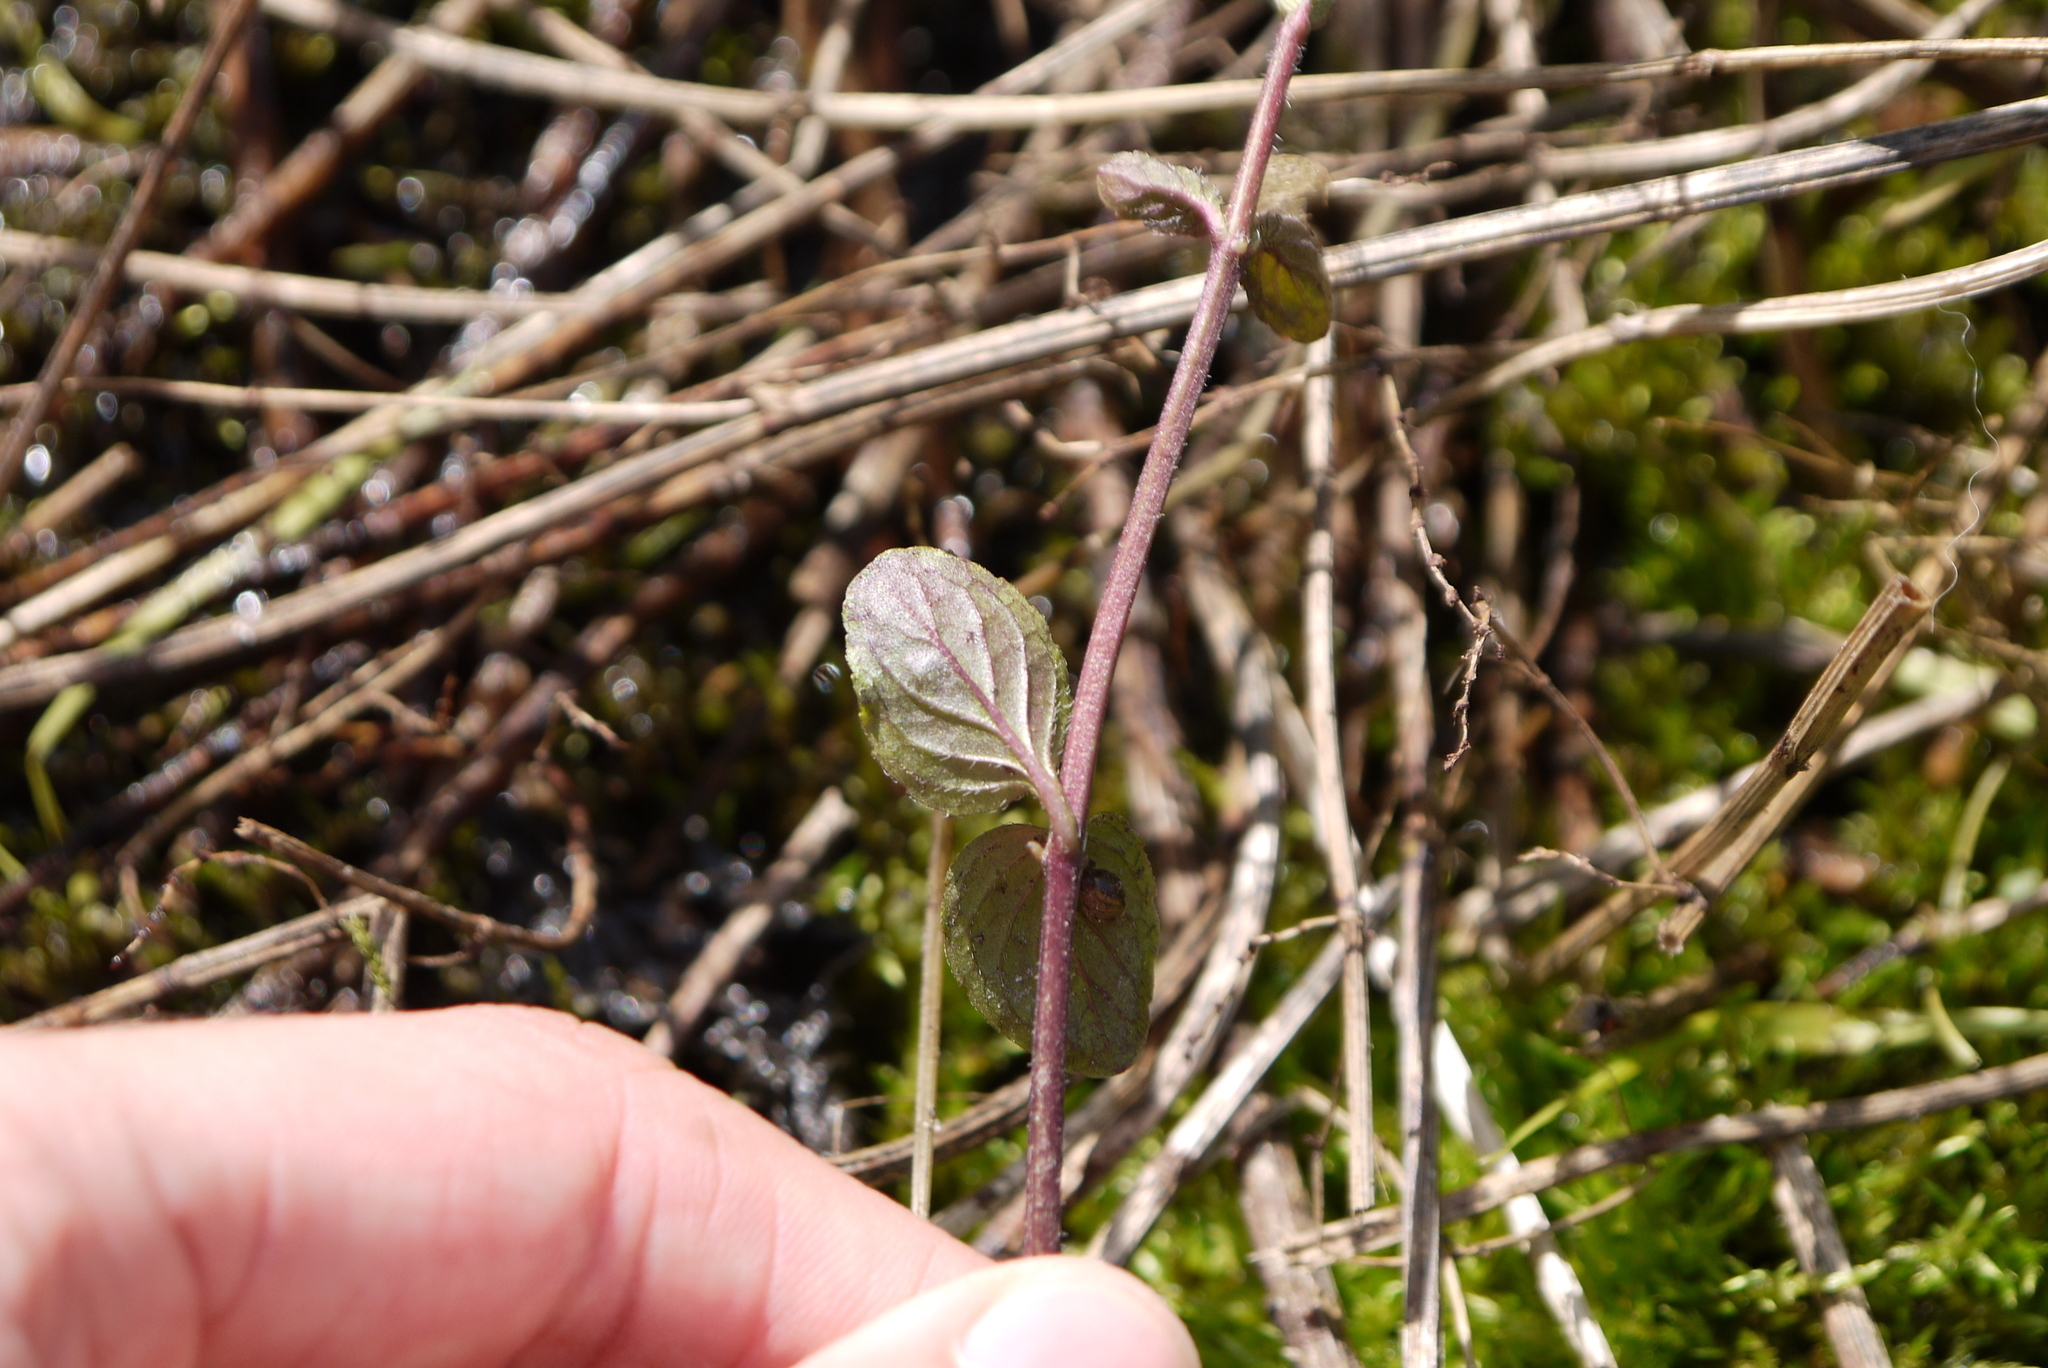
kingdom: Plantae
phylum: Tracheophyta
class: Magnoliopsida
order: Lamiales
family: Lamiaceae
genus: Mentha
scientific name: Mentha aquatica
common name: Water mint
